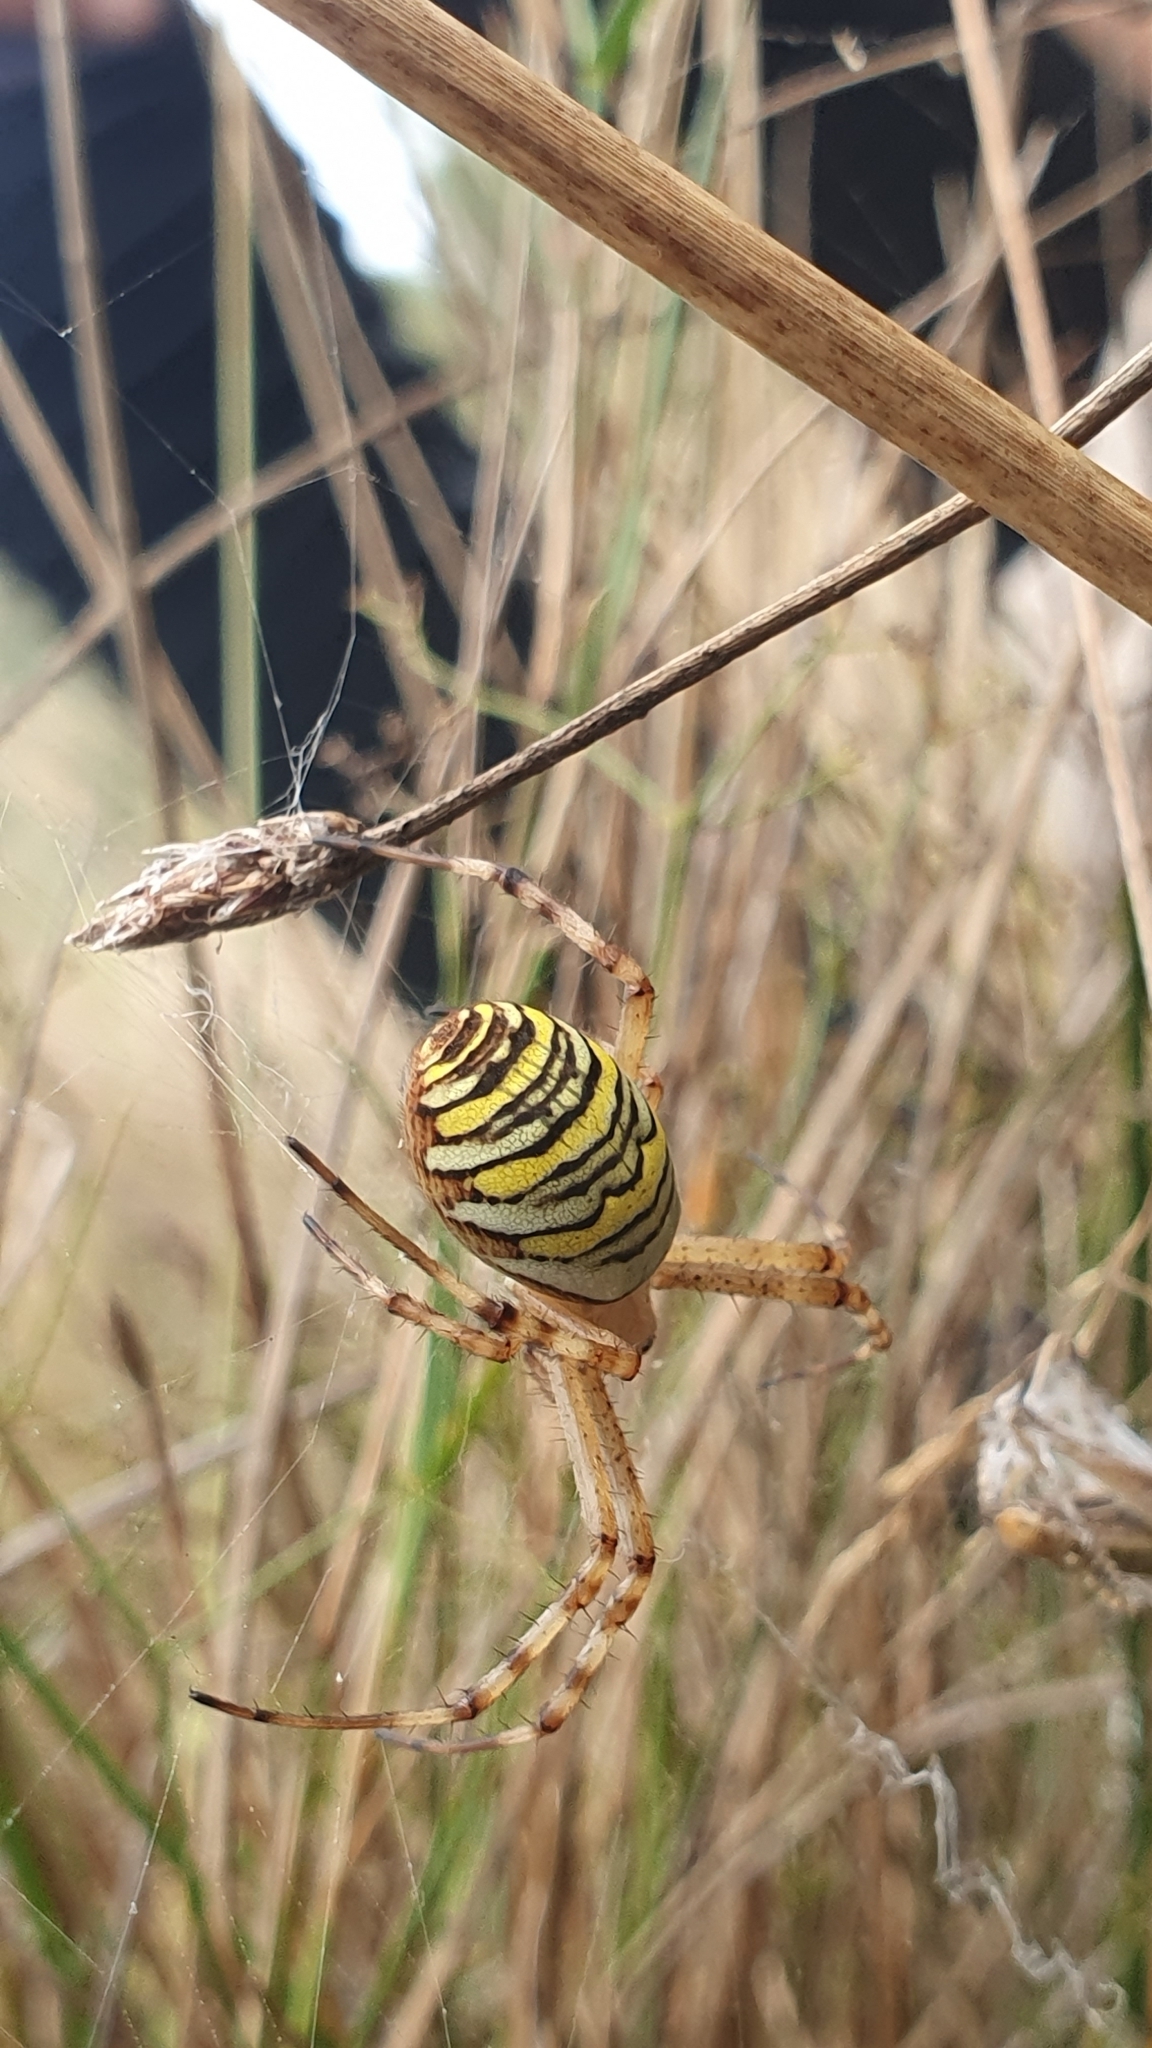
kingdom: Animalia
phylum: Arthropoda
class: Arachnida
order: Araneae
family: Araneidae
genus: Argiope
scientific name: Argiope bruennichi
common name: Wasp spider
